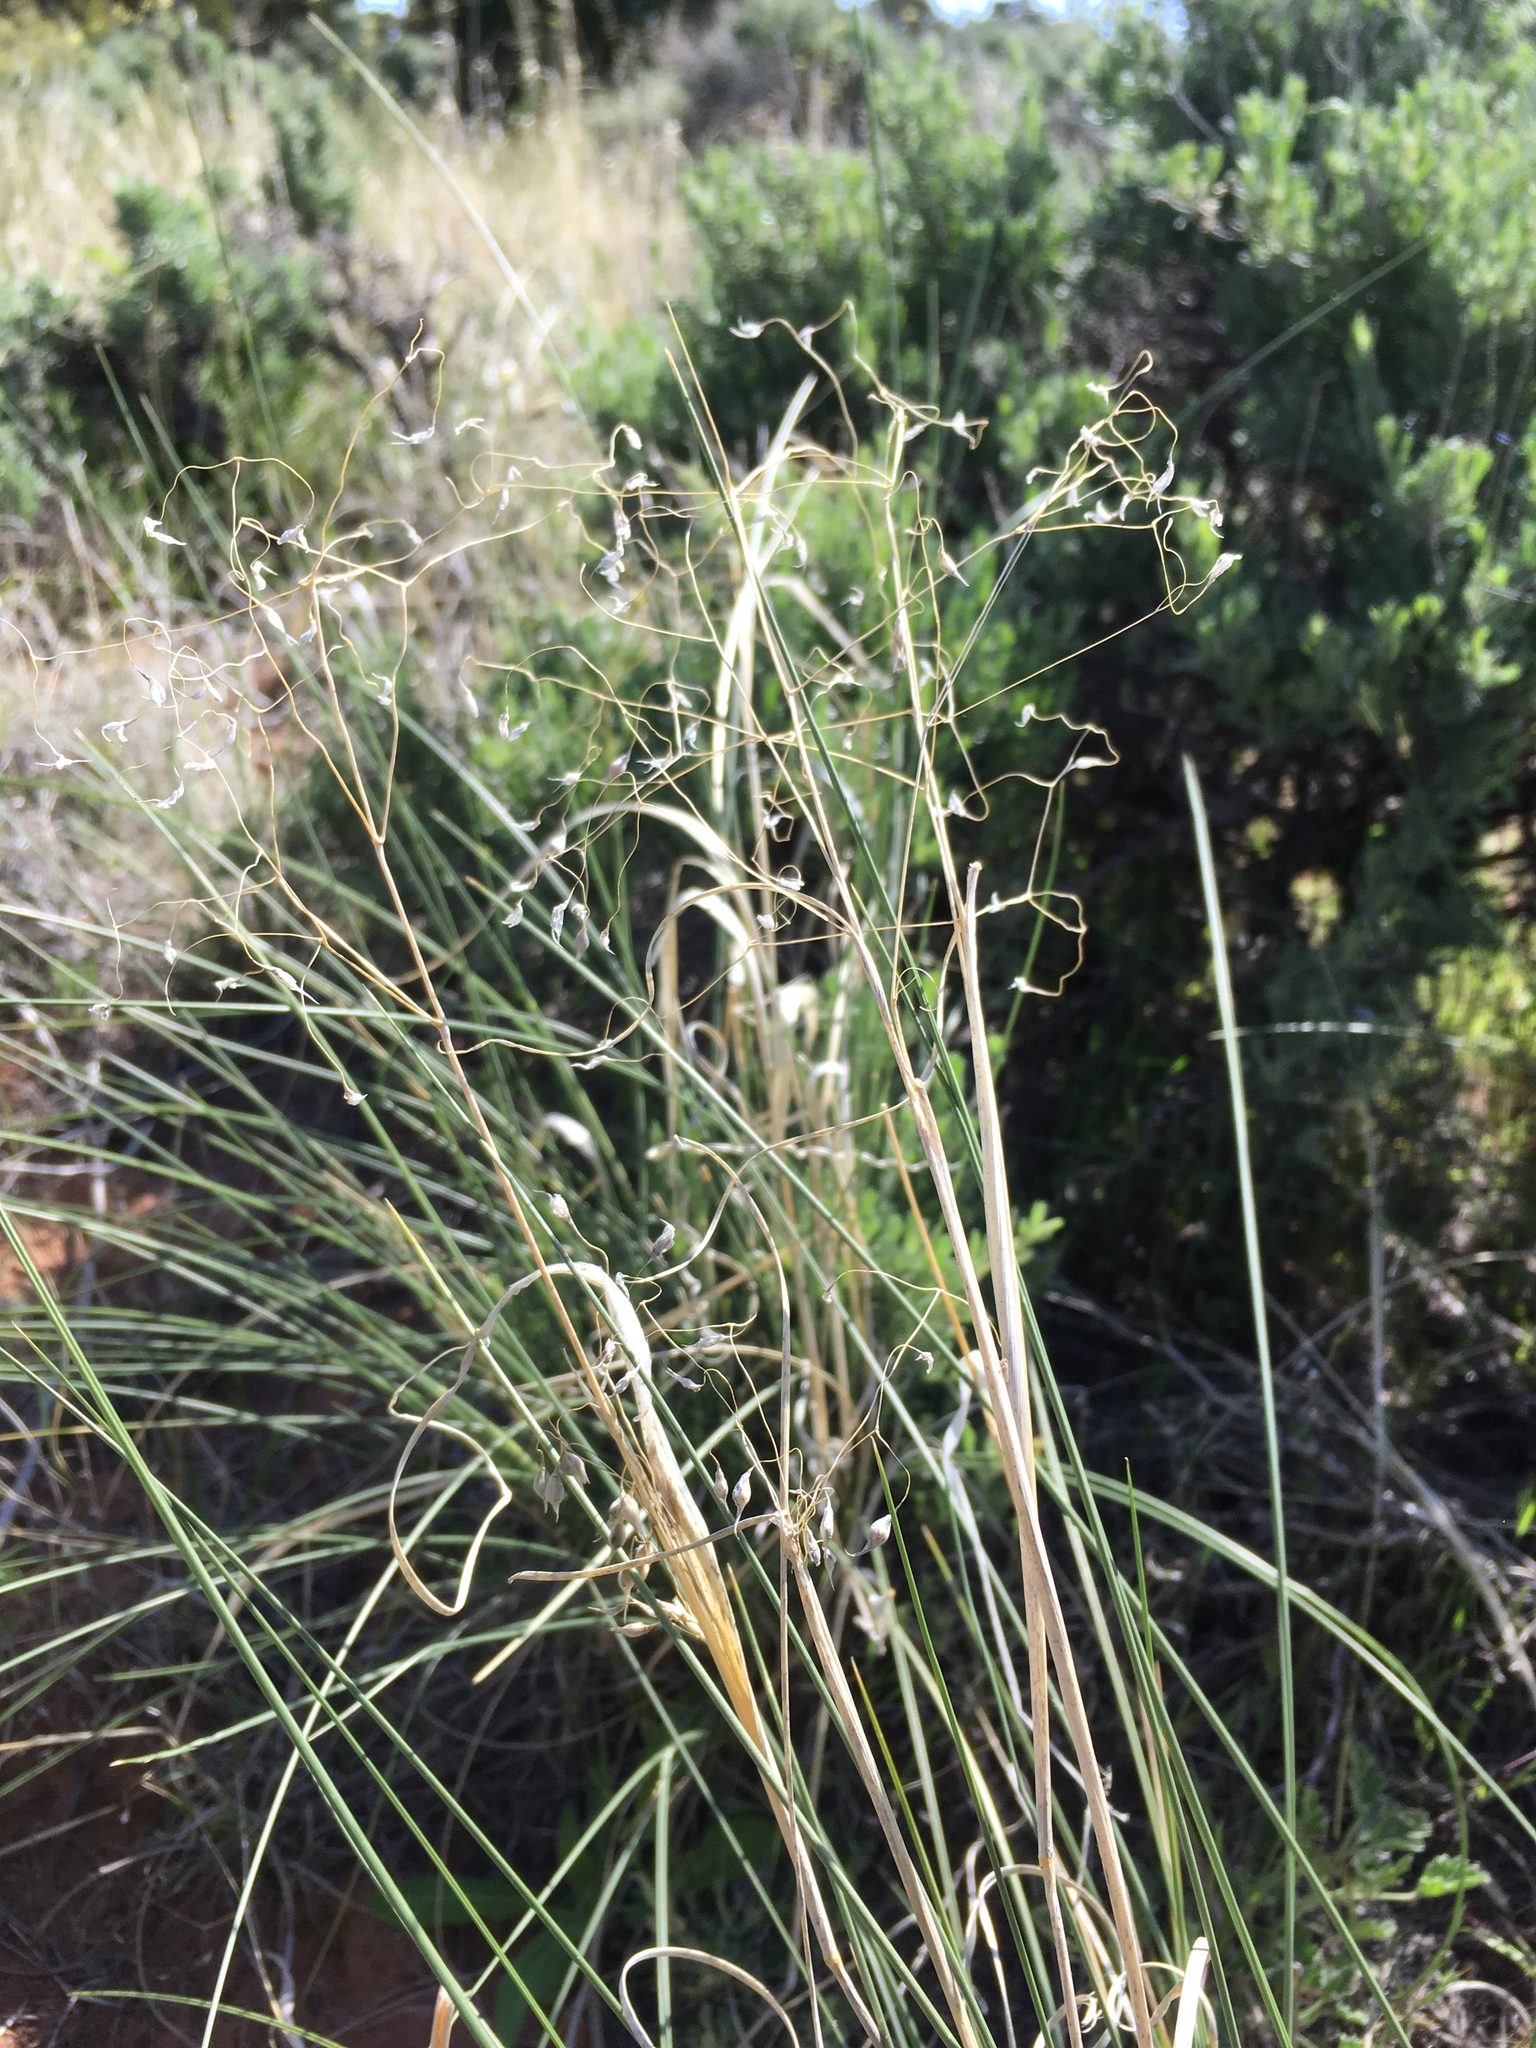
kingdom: Plantae
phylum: Tracheophyta
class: Liliopsida
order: Poales
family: Poaceae
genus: Eriocoma
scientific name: Eriocoma hymenoides
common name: Indian mountain ricegrass
